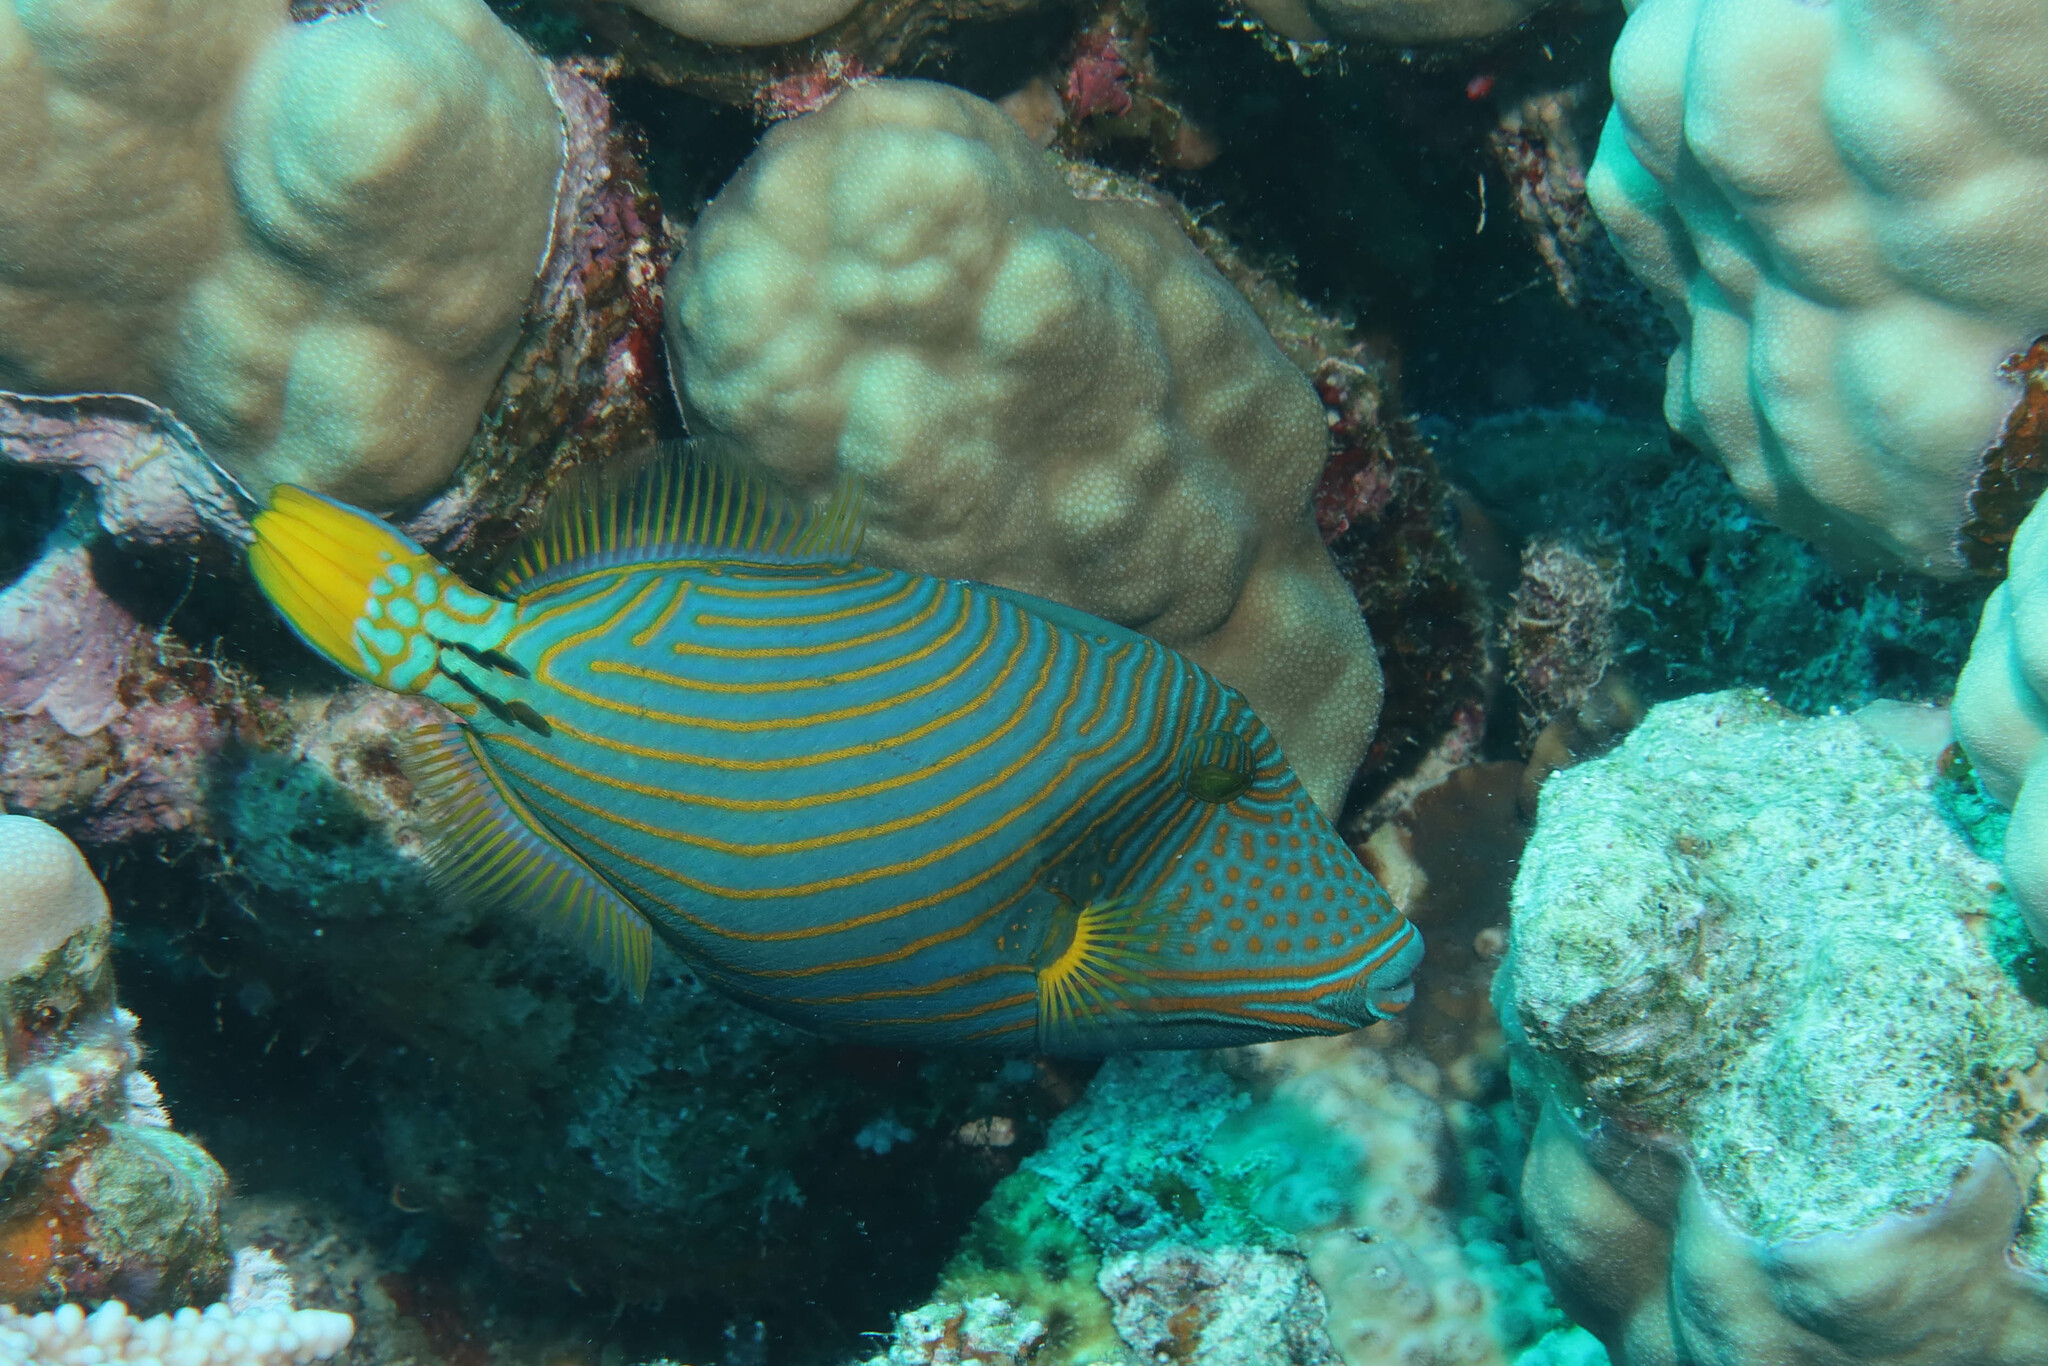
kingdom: Animalia
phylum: Chordata
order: Tetraodontiformes
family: Balistidae
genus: Balistapus
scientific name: Balistapus undulatus
